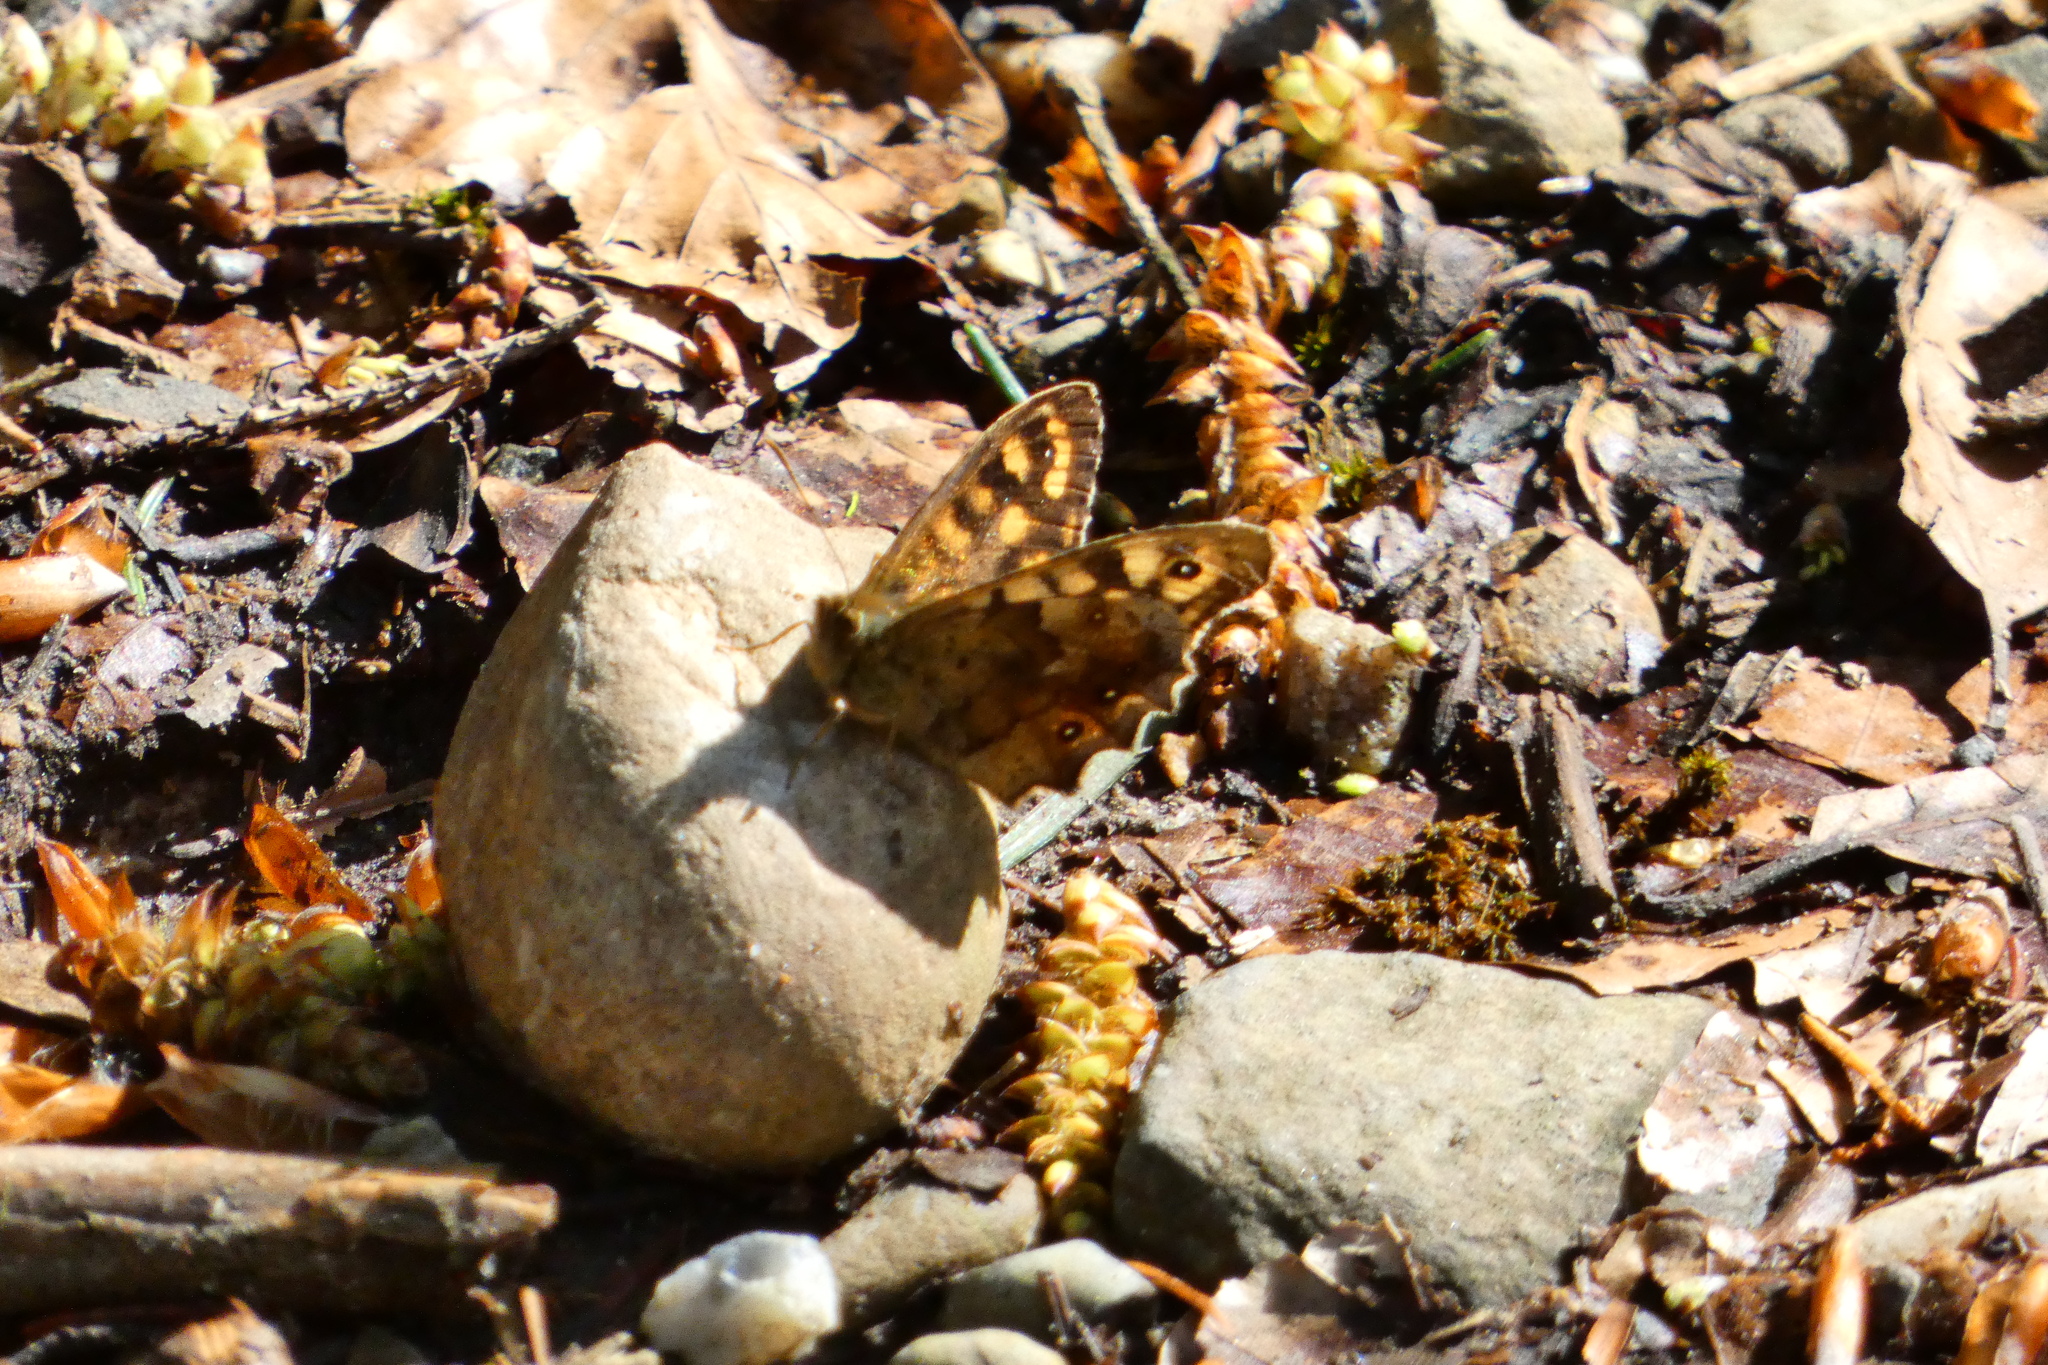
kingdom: Animalia
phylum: Arthropoda
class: Insecta
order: Lepidoptera
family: Nymphalidae
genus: Pararge
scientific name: Pararge aegeria
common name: Speckled wood
